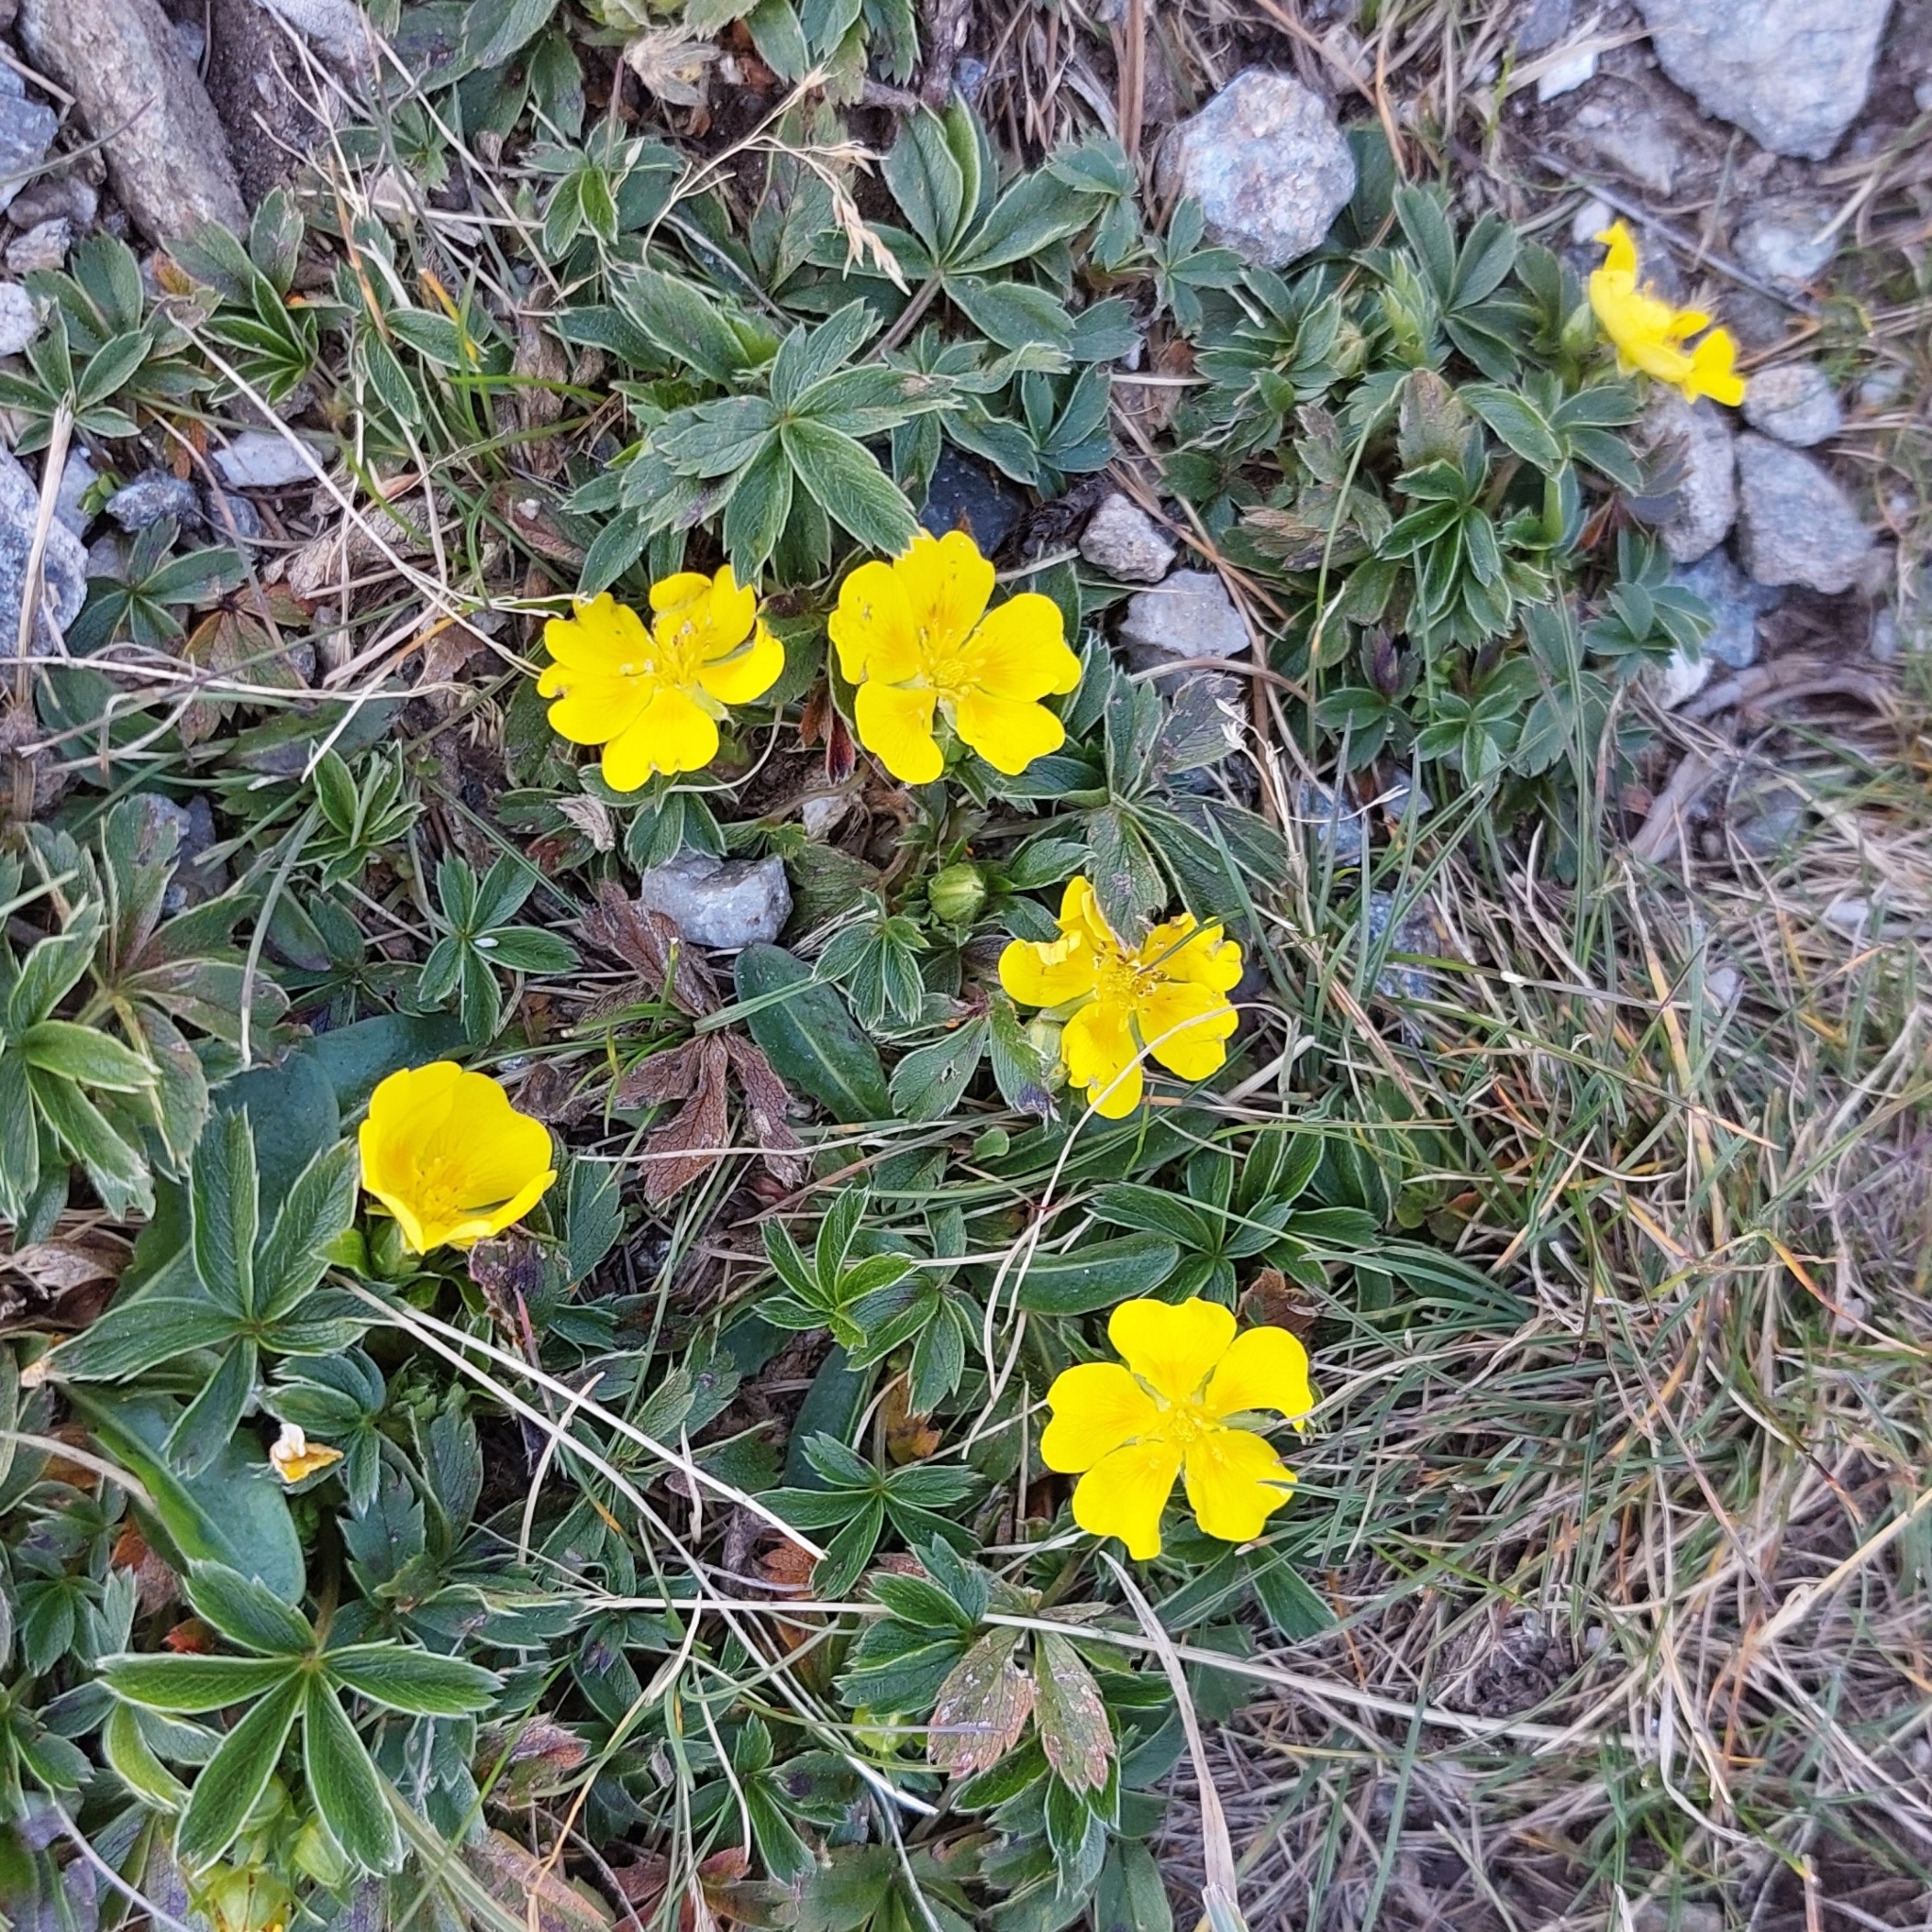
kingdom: Plantae
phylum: Tracheophyta
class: Magnoliopsida
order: Rosales
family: Rosaceae
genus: Potentilla
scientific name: Potentilla aurea
